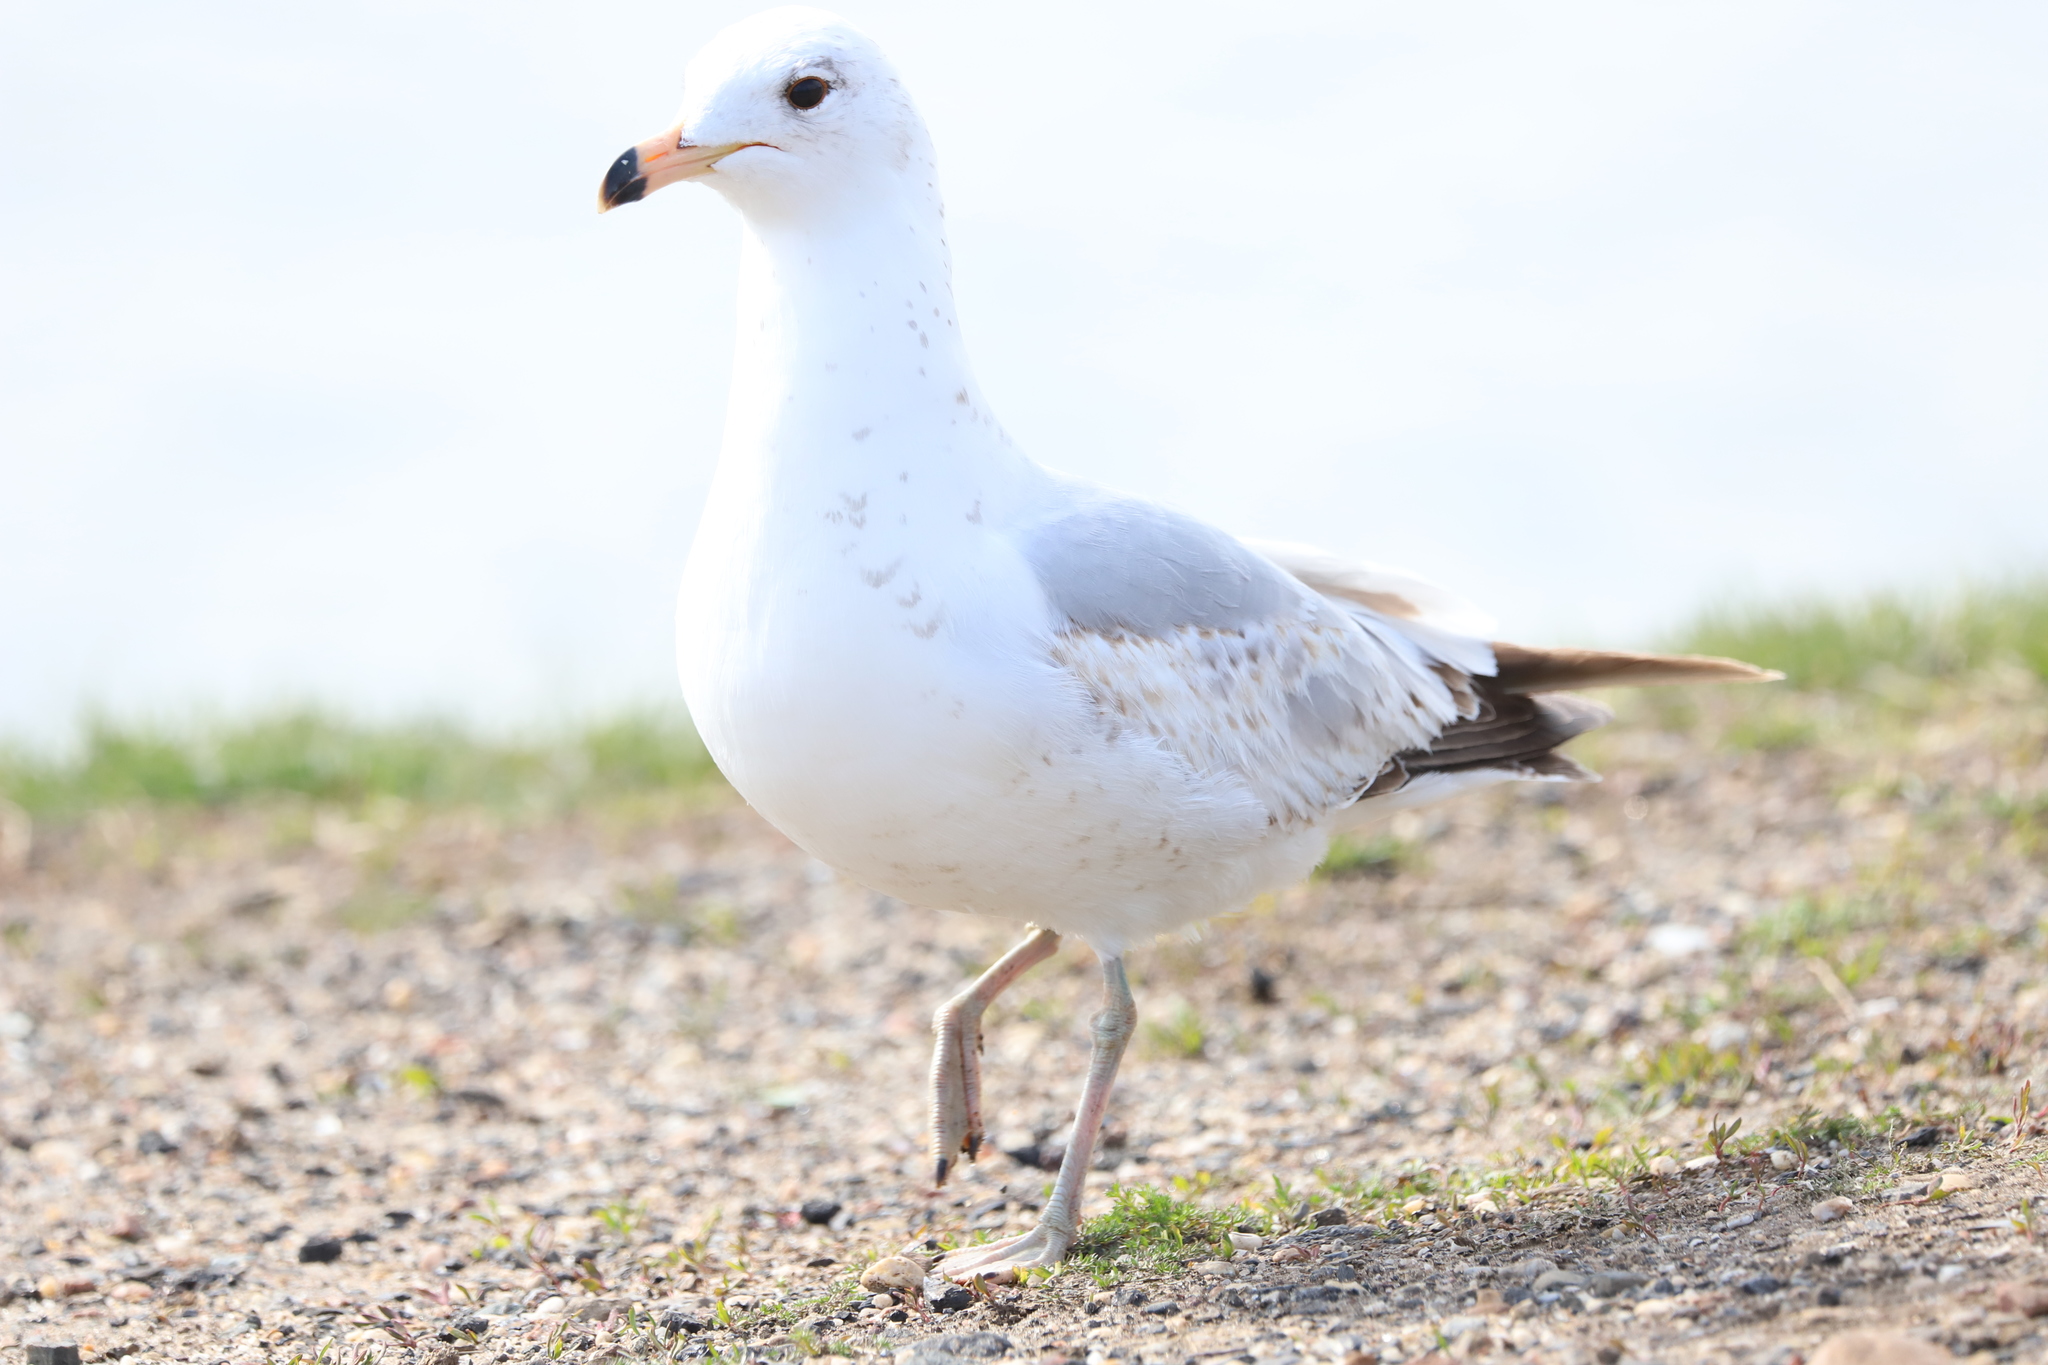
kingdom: Animalia
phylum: Chordata
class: Aves
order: Charadriiformes
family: Laridae
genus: Larus
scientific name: Larus delawarensis
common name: Ring-billed gull
